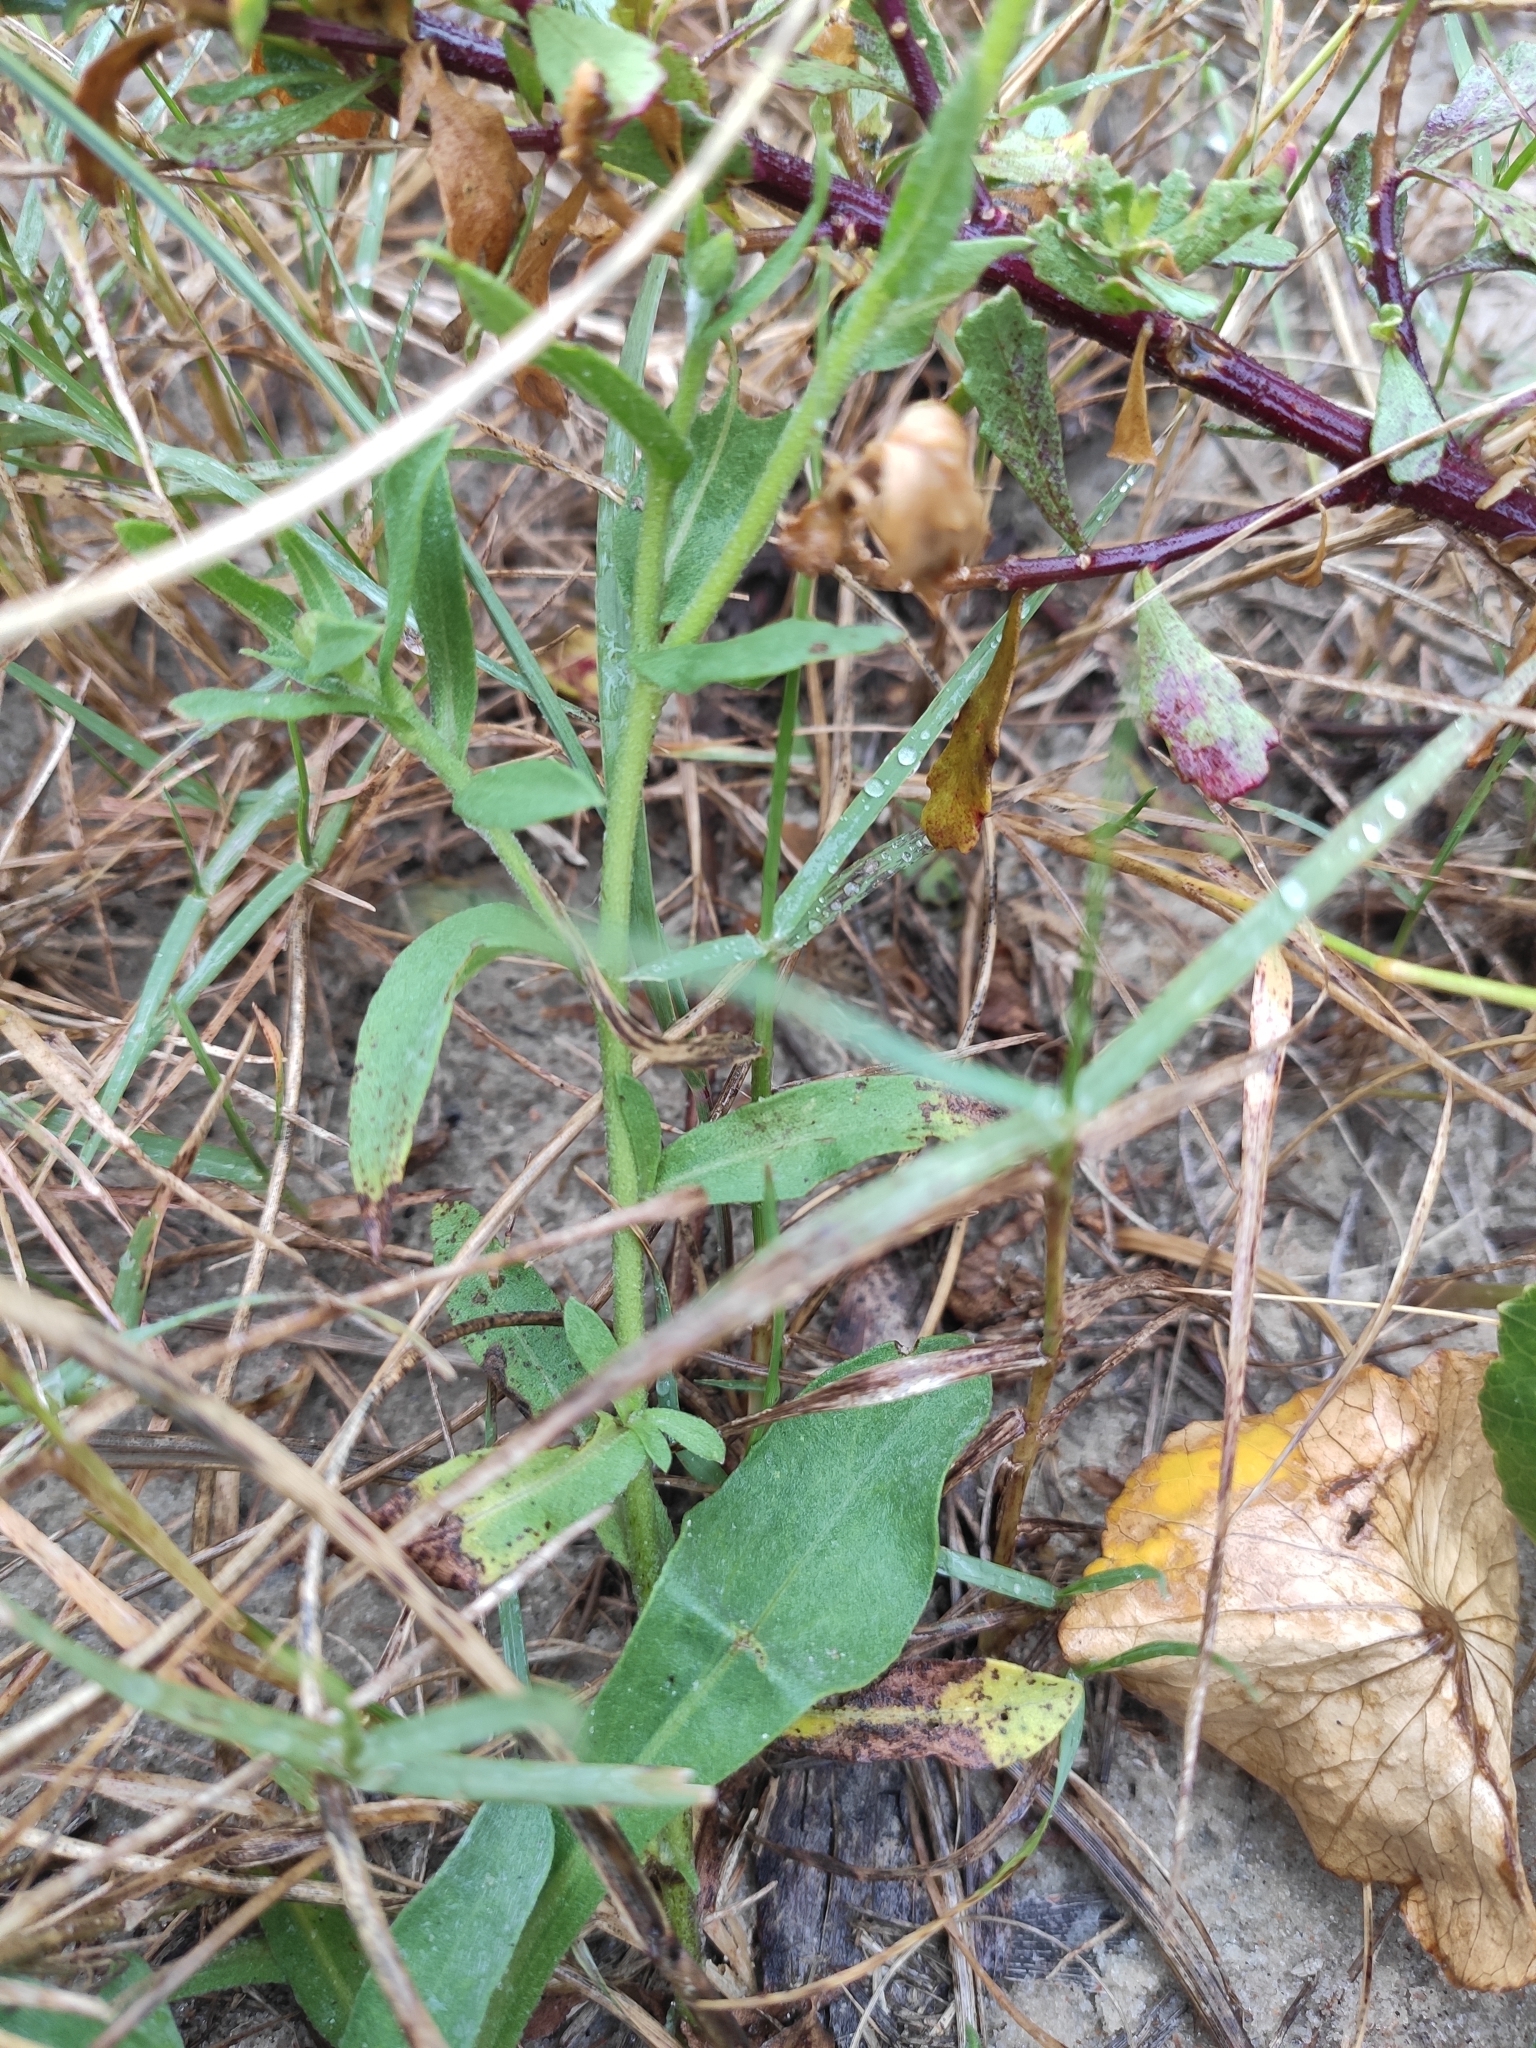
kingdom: Plantae
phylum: Tracheophyta
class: Magnoliopsida
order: Asterales
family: Asteraceae
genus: Noticastrum
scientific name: Noticastrum acuminatum
